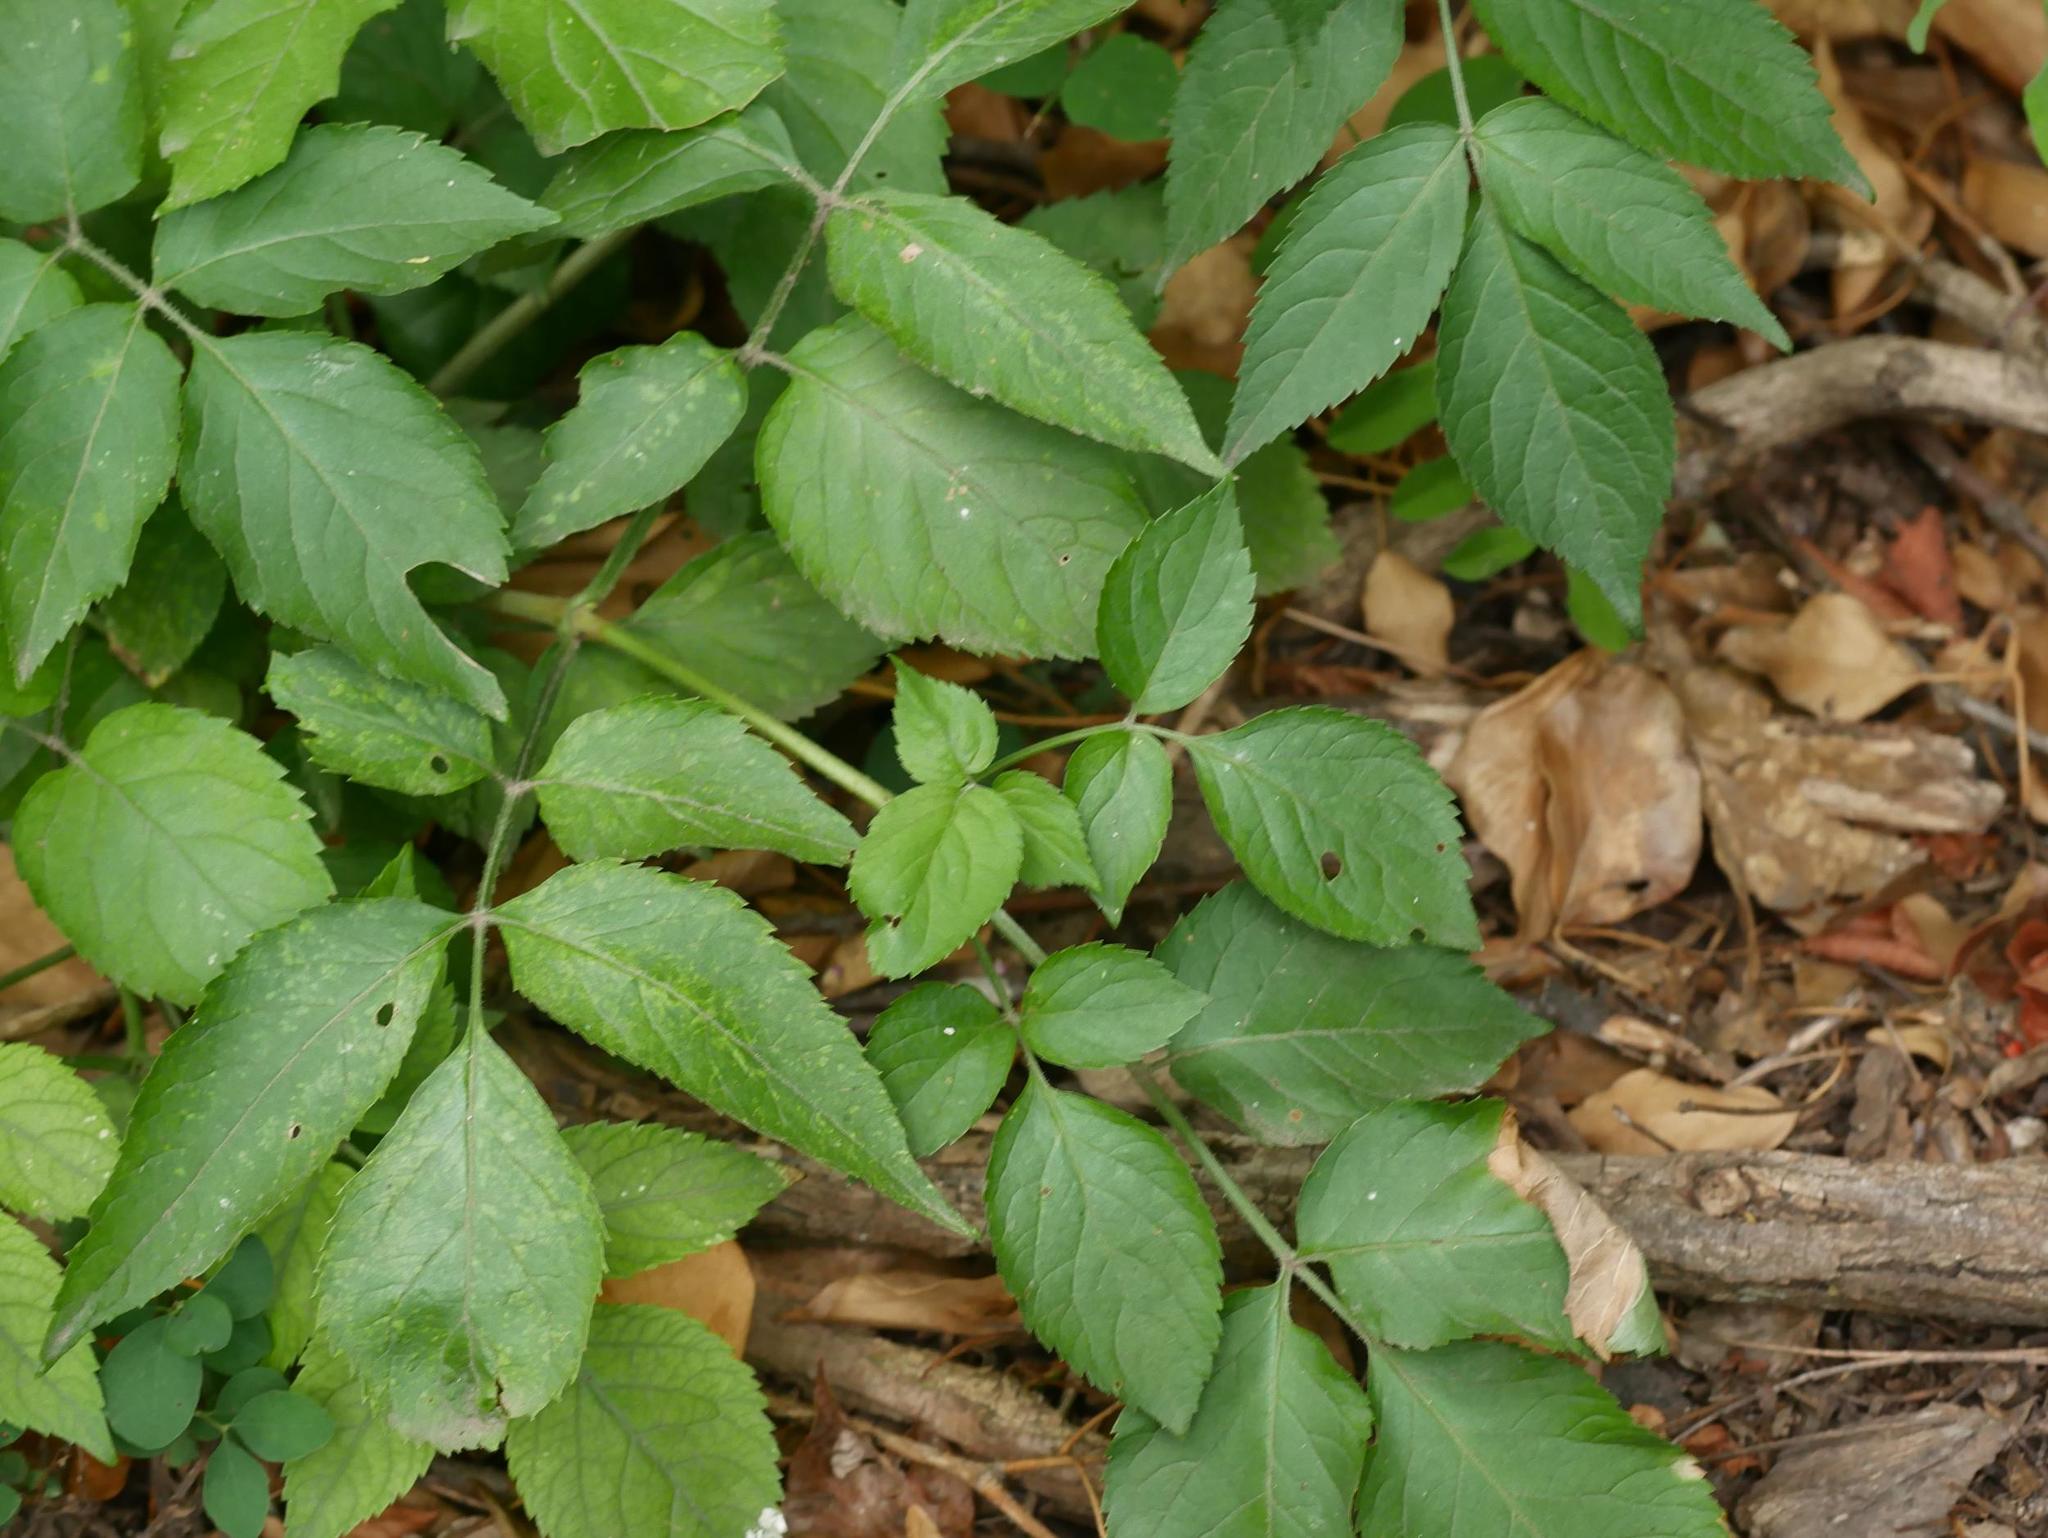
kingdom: Plantae
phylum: Tracheophyta
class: Magnoliopsida
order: Dipsacales
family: Viburnaceae
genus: Sambucus
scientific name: Sambucus nigra
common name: Elder
